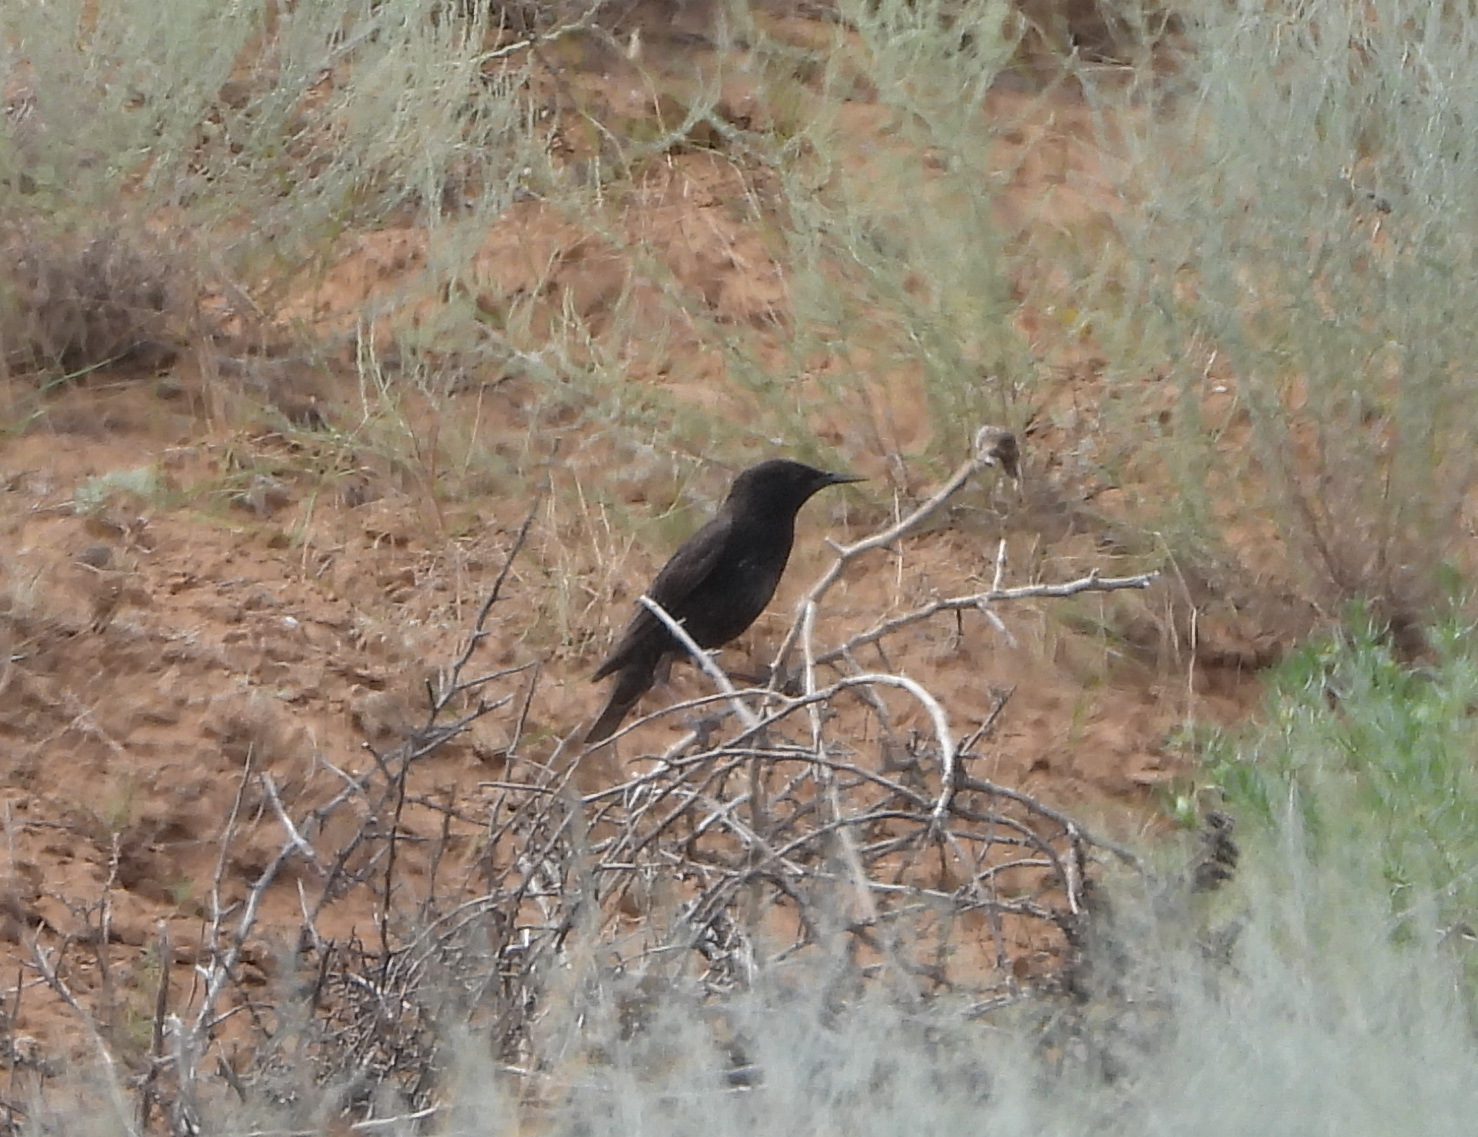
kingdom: Animalia
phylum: Chordata
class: Aves
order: Passeriformes
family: Sturnidae
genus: Sturnus
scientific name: Sturnus vulgaris
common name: Common starling
